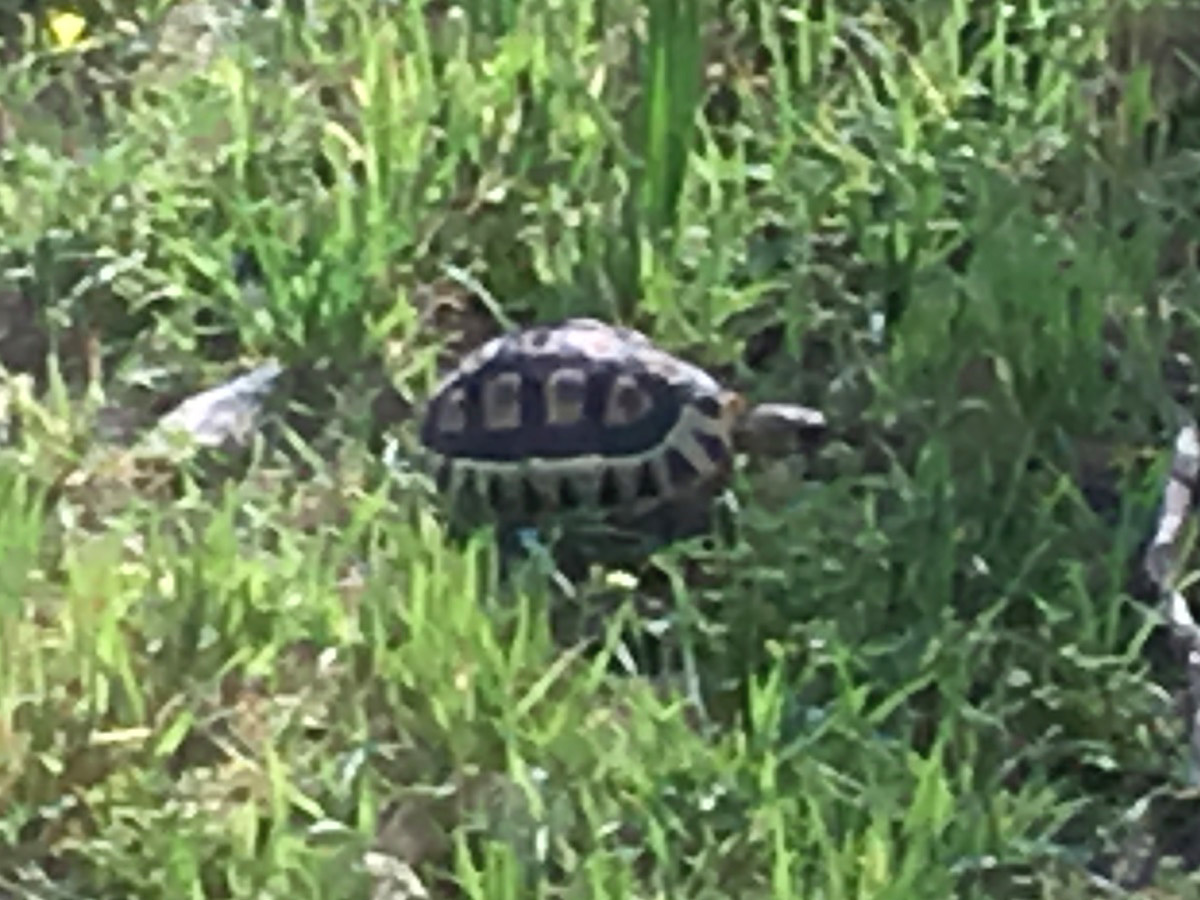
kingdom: Animalia
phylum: Chordata
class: Testudines
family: Testudinidae
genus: Chersina
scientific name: Chersina angulata
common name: South african bowsprit tortoise
